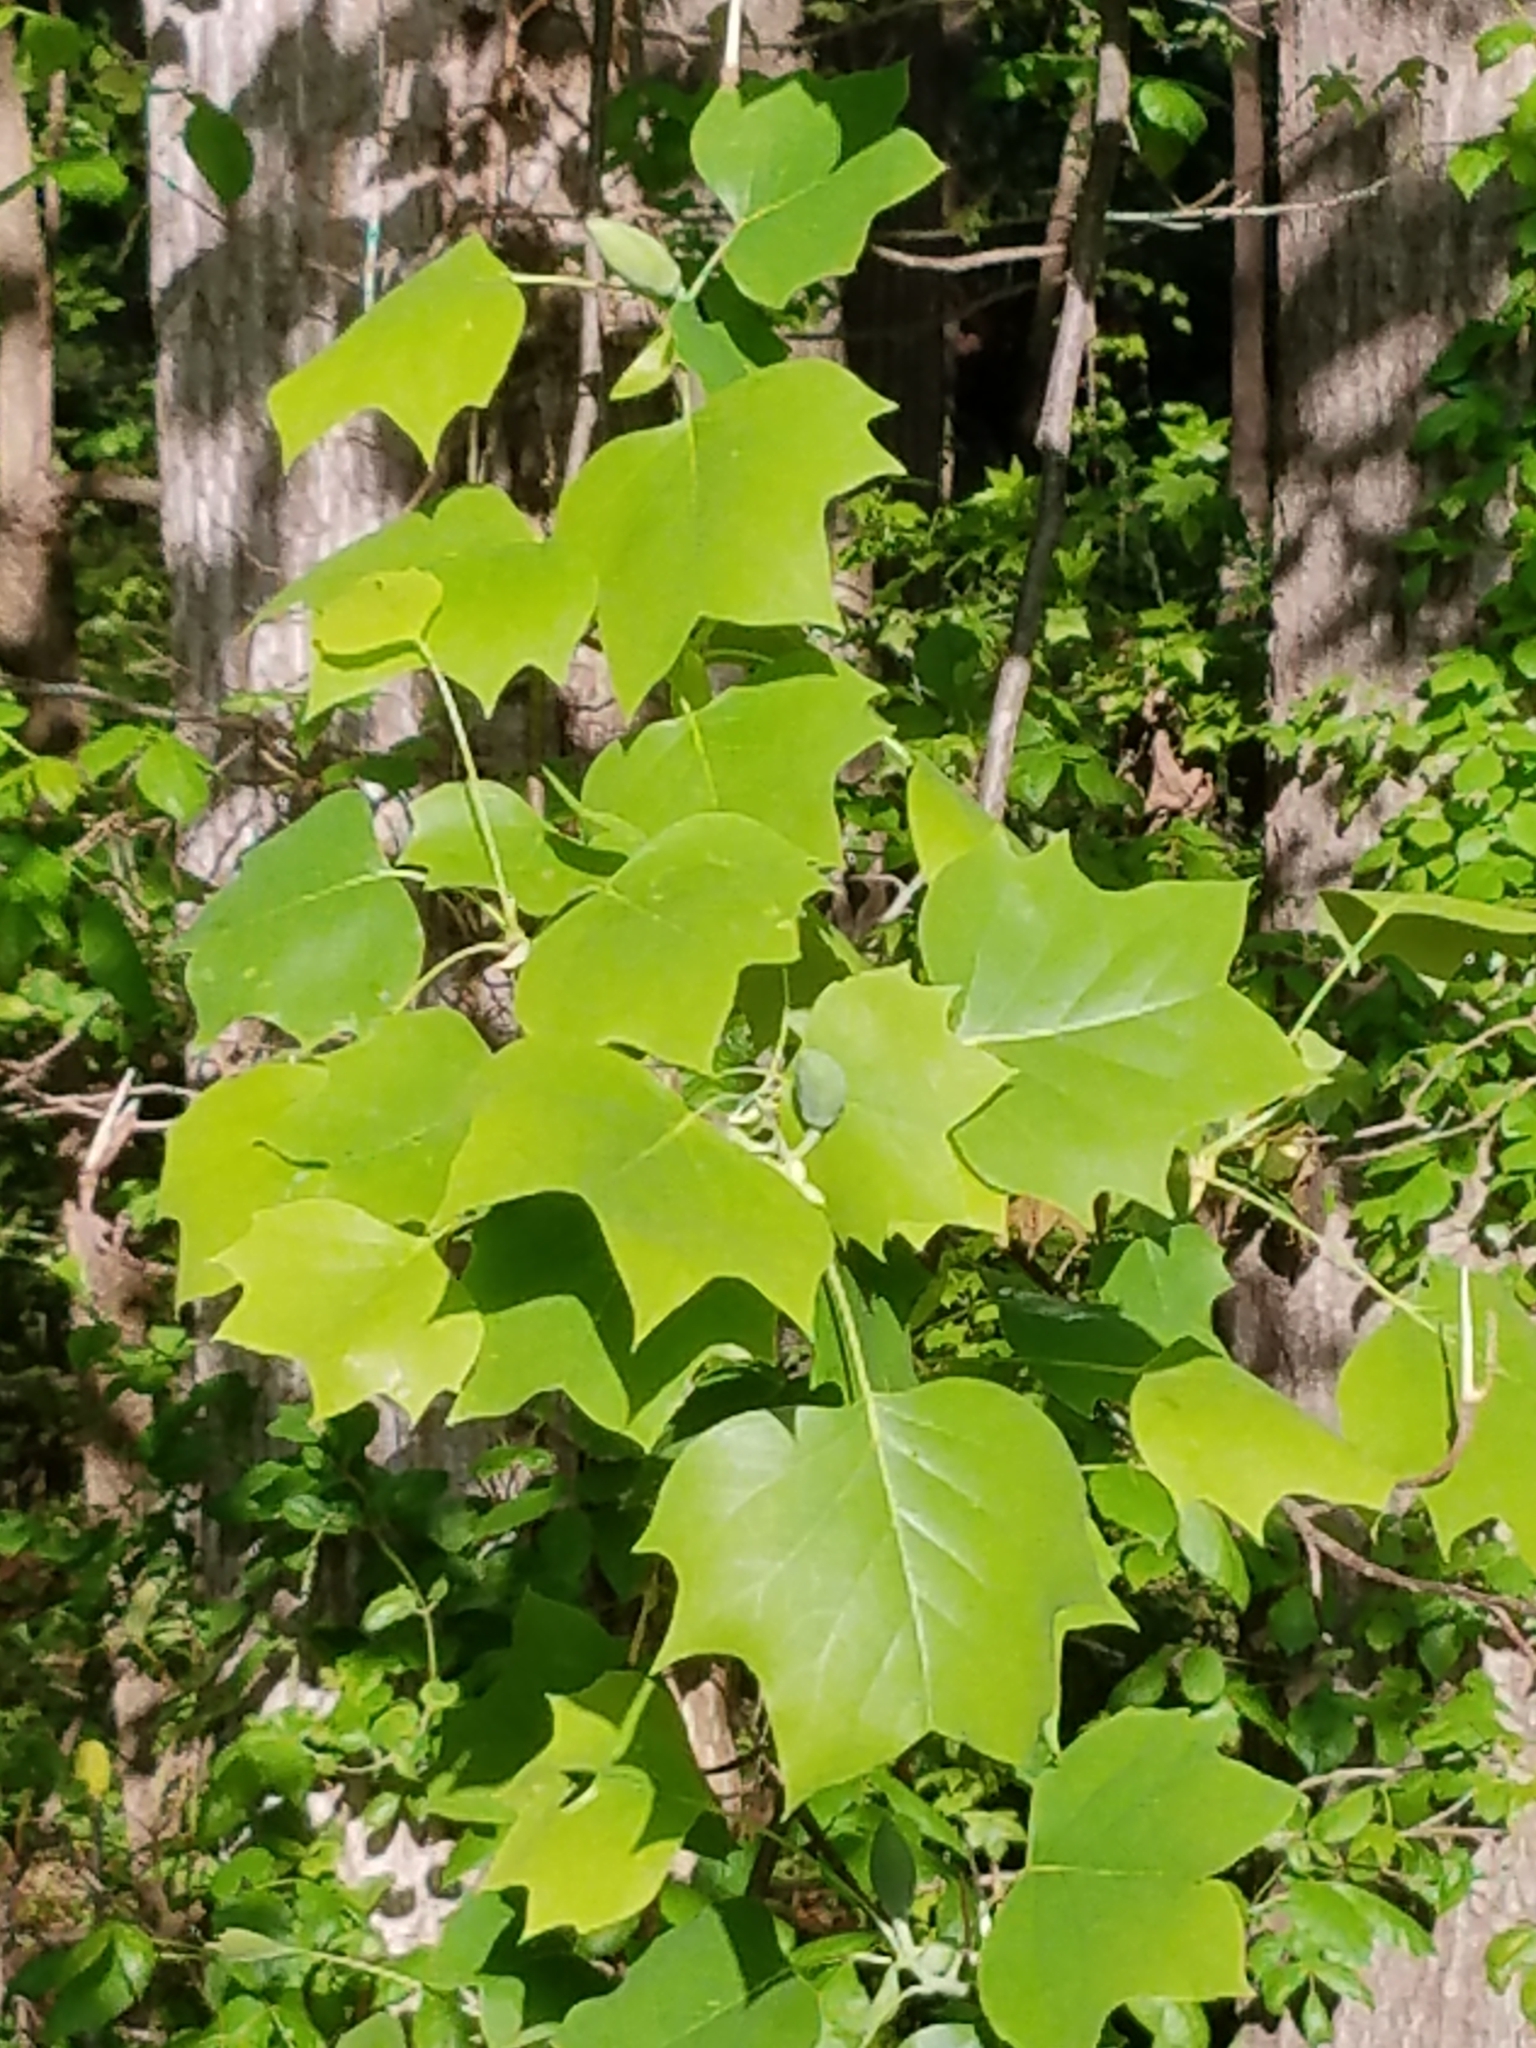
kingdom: Plantae
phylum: Tracheophyta
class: Magnoliopsida
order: Magnoliales
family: Magnoliaceae
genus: Liriodendron
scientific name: Liriodendron tulipifera
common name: Tulip tree
